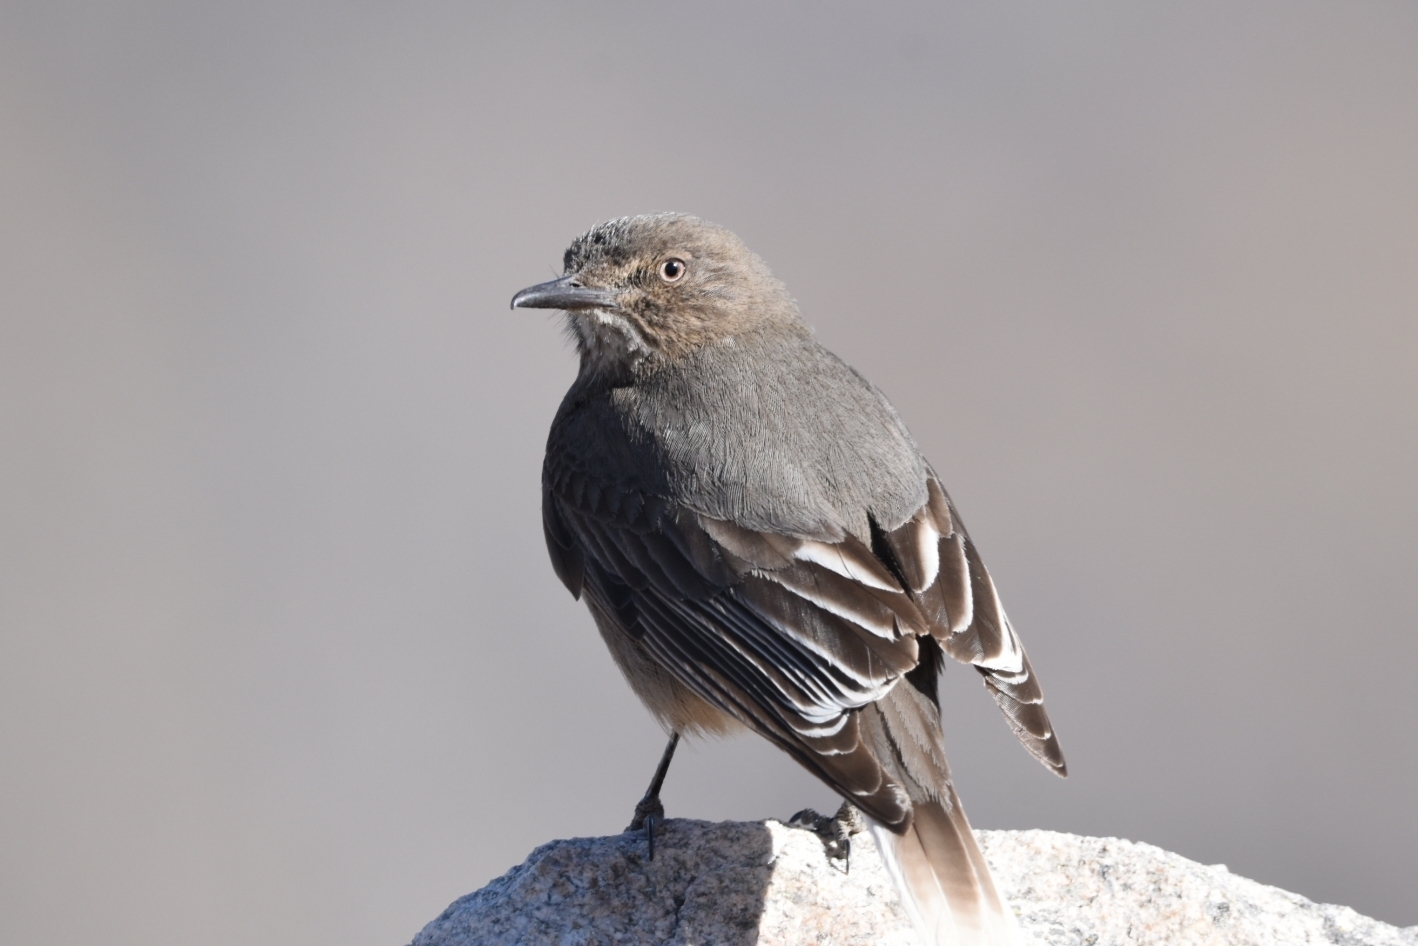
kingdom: Animalia
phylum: Chordata
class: Aves
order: Passeriformes
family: Tyrannidae
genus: Agriornis
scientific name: Agriornis montanus
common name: Black-billed shrike-tyrant
